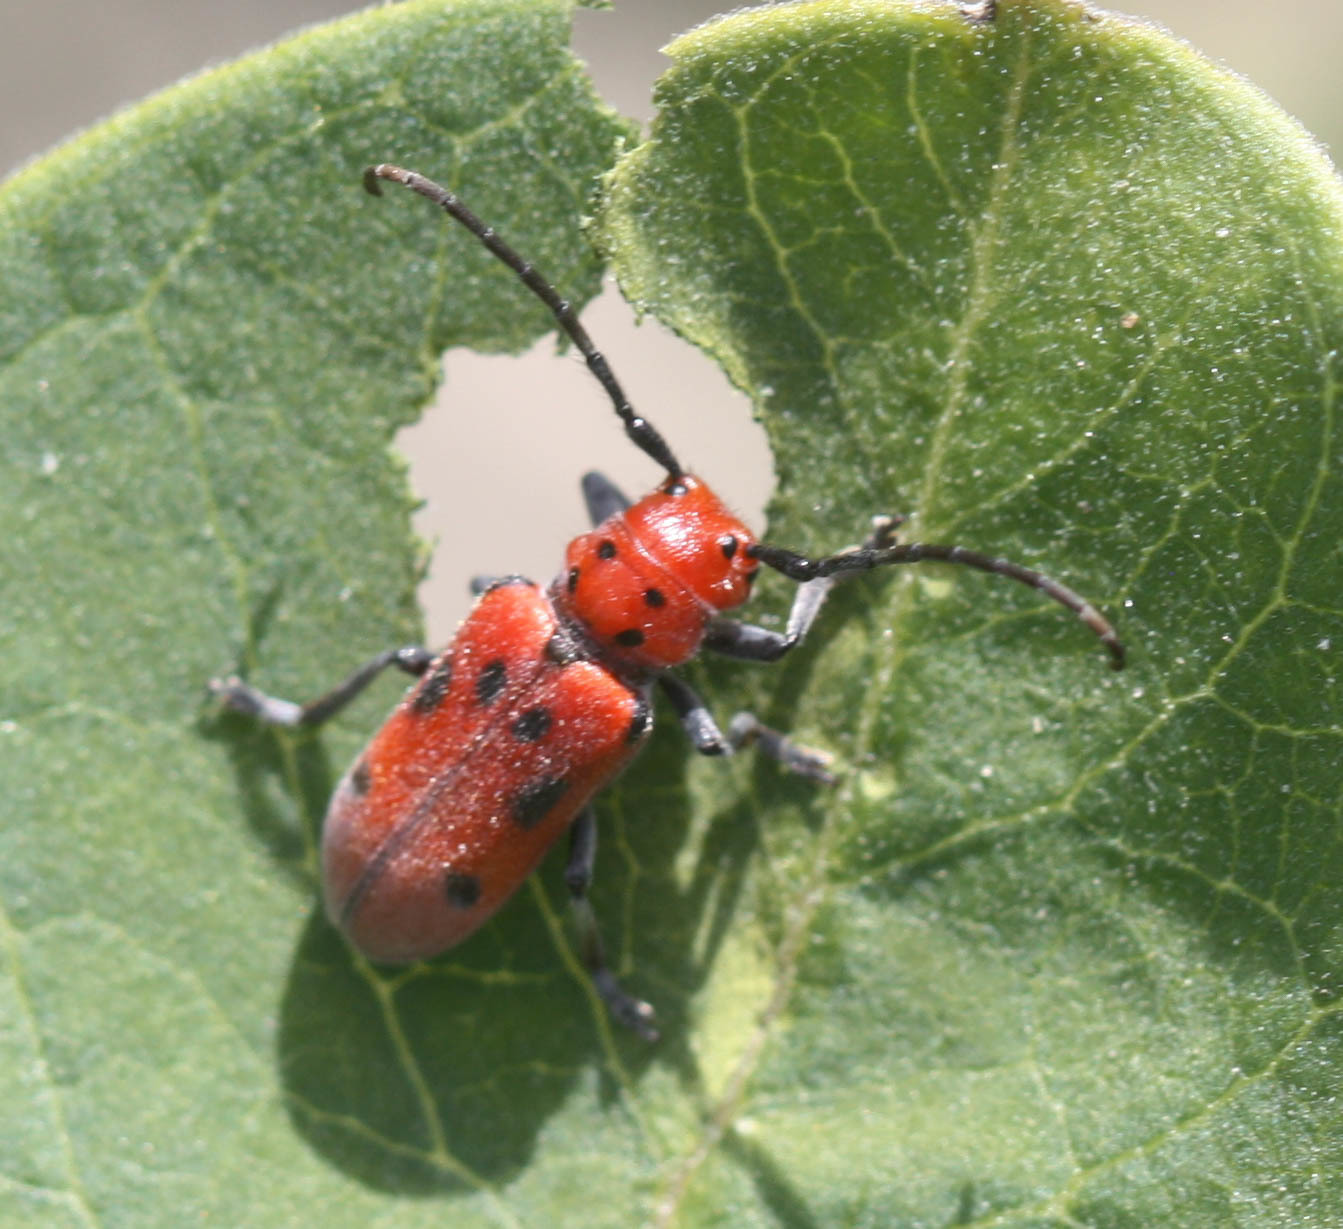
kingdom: Animalia
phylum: Arthropoda
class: Insecta
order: Coleoptera
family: Cerambycidae
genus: Tetraopes
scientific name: Tetraopes tetrophthalmus
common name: Red milkweed beetle
